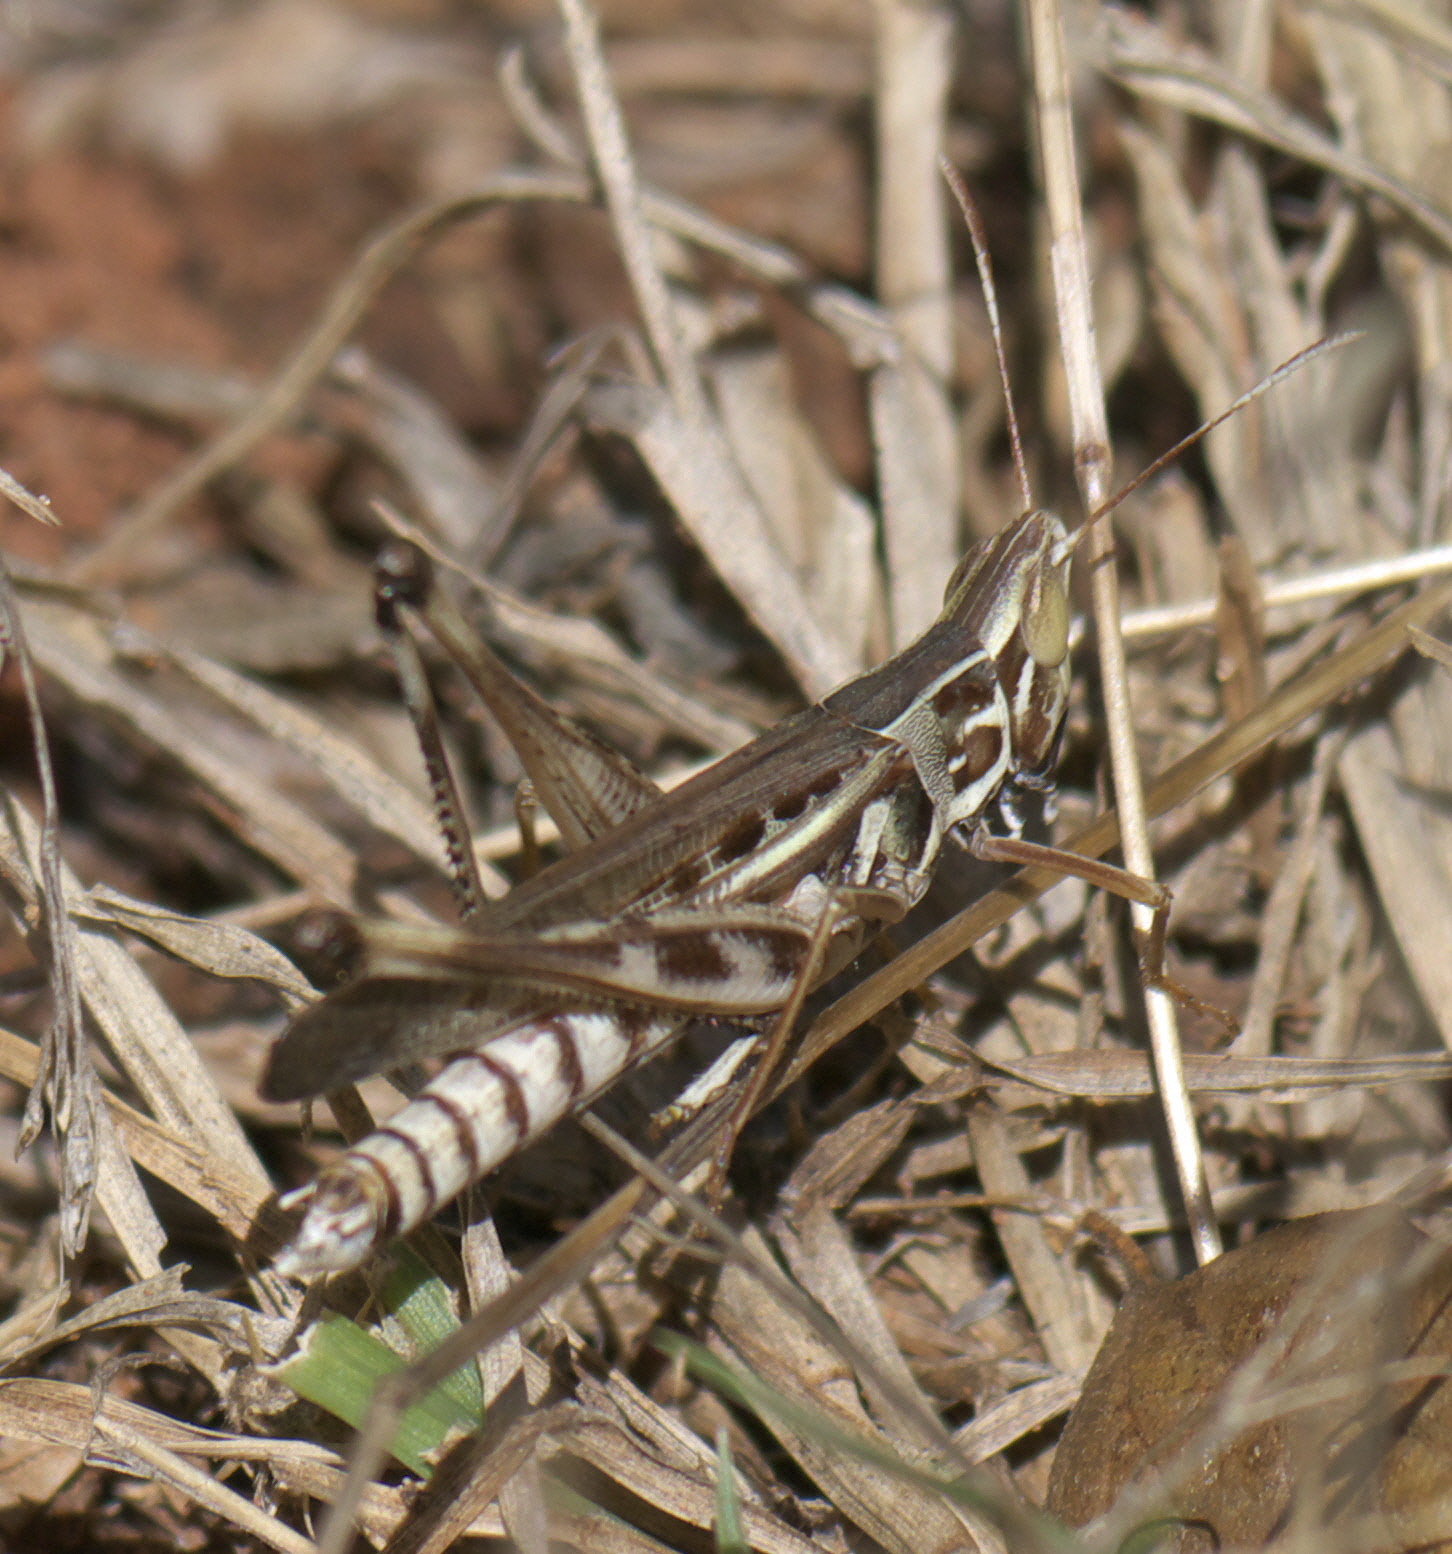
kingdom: Animalia
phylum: Arthropoda
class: Insecta
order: Orthoptera
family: Acrididae
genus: Syrbula
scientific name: Syrbula admirabilis
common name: Handsome grasshopper
